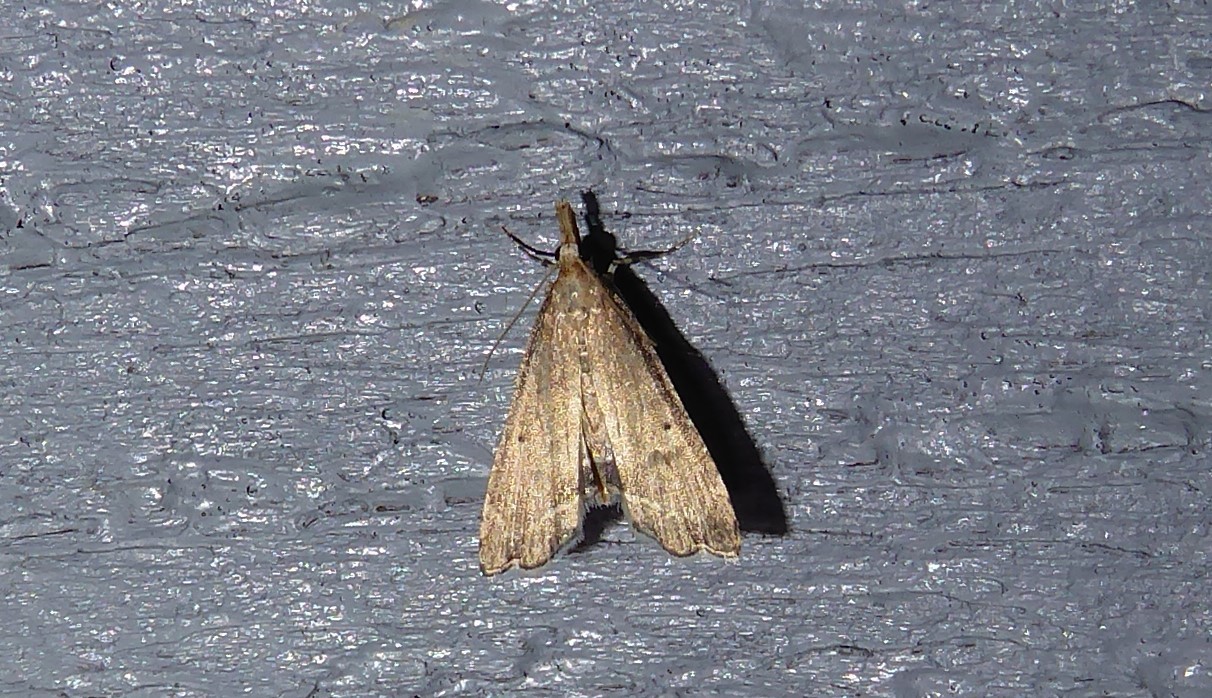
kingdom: Animalia
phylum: Arthropoda
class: Insecta
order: Lepidoptera
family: Crambidae
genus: Diplopseustis
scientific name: Diplopseustis perieresalis
